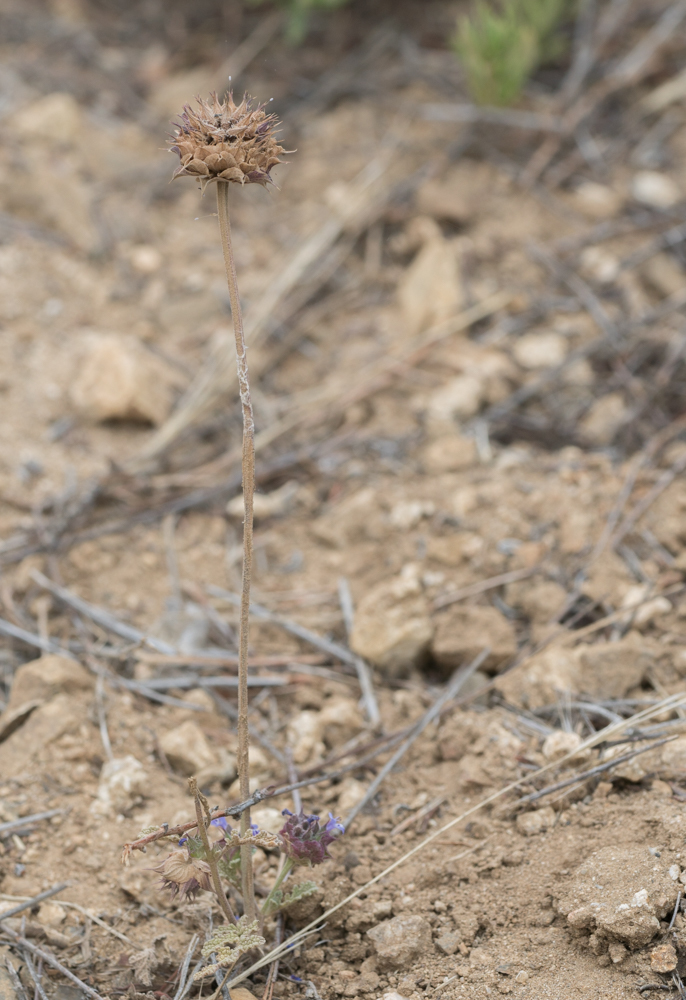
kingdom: Plantae
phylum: Tracheophyta
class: Magnoliopsida
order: Lamiales
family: Lamiaceae
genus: Salvia
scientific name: Salvia columbariae
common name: Chia
